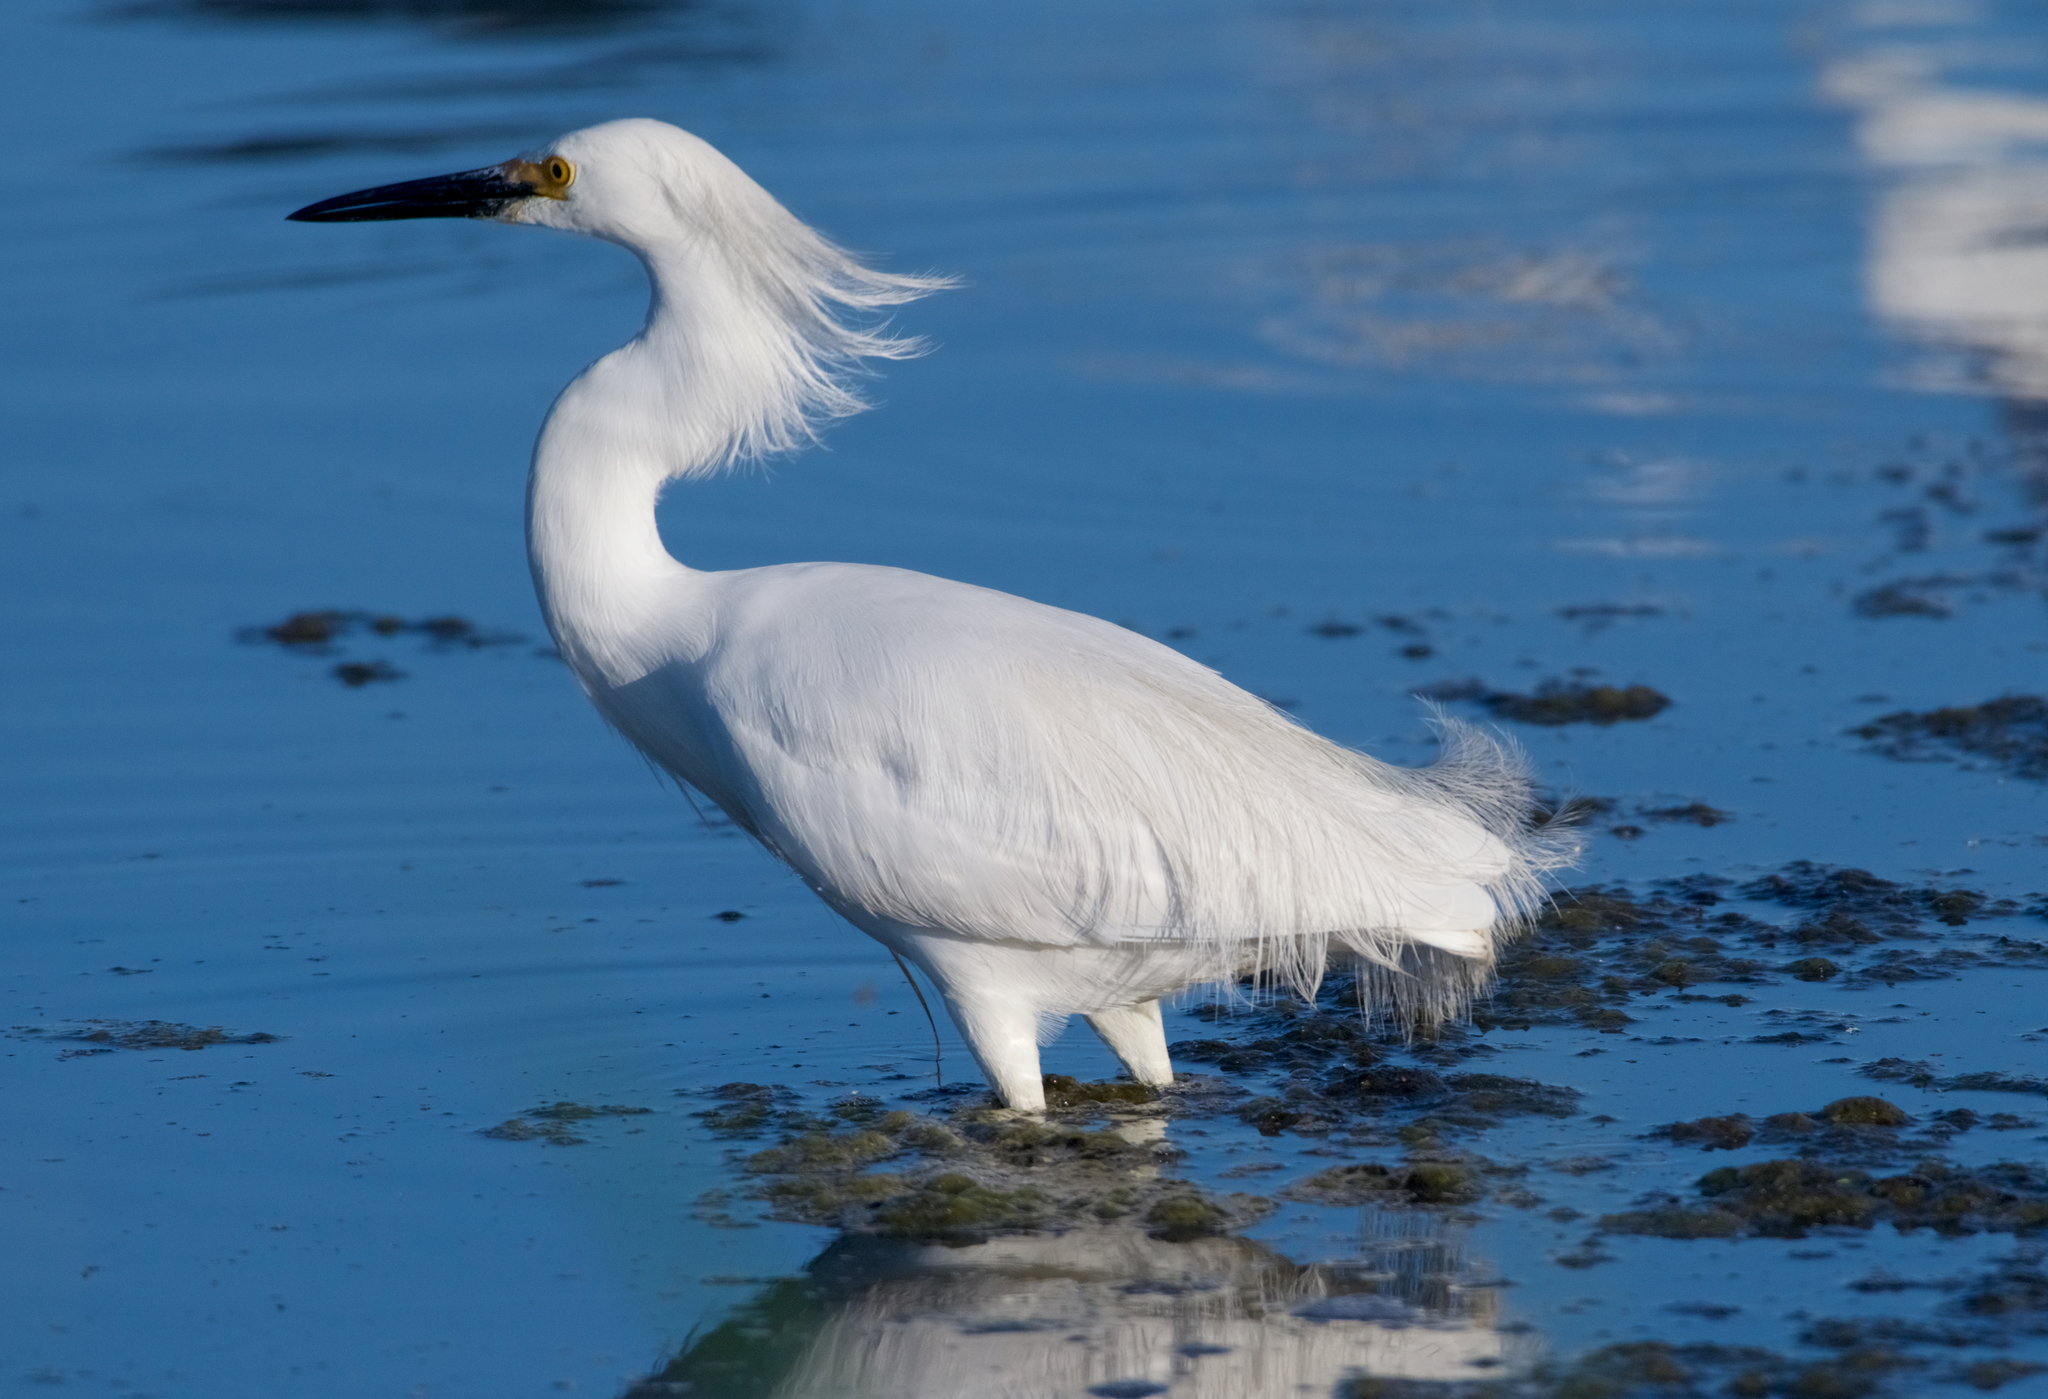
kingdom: Animalia
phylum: Chordata
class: Aves
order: Pelecaniformes
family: Ardeidae
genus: Egretta
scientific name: Egretta thula
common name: Snowy egret
